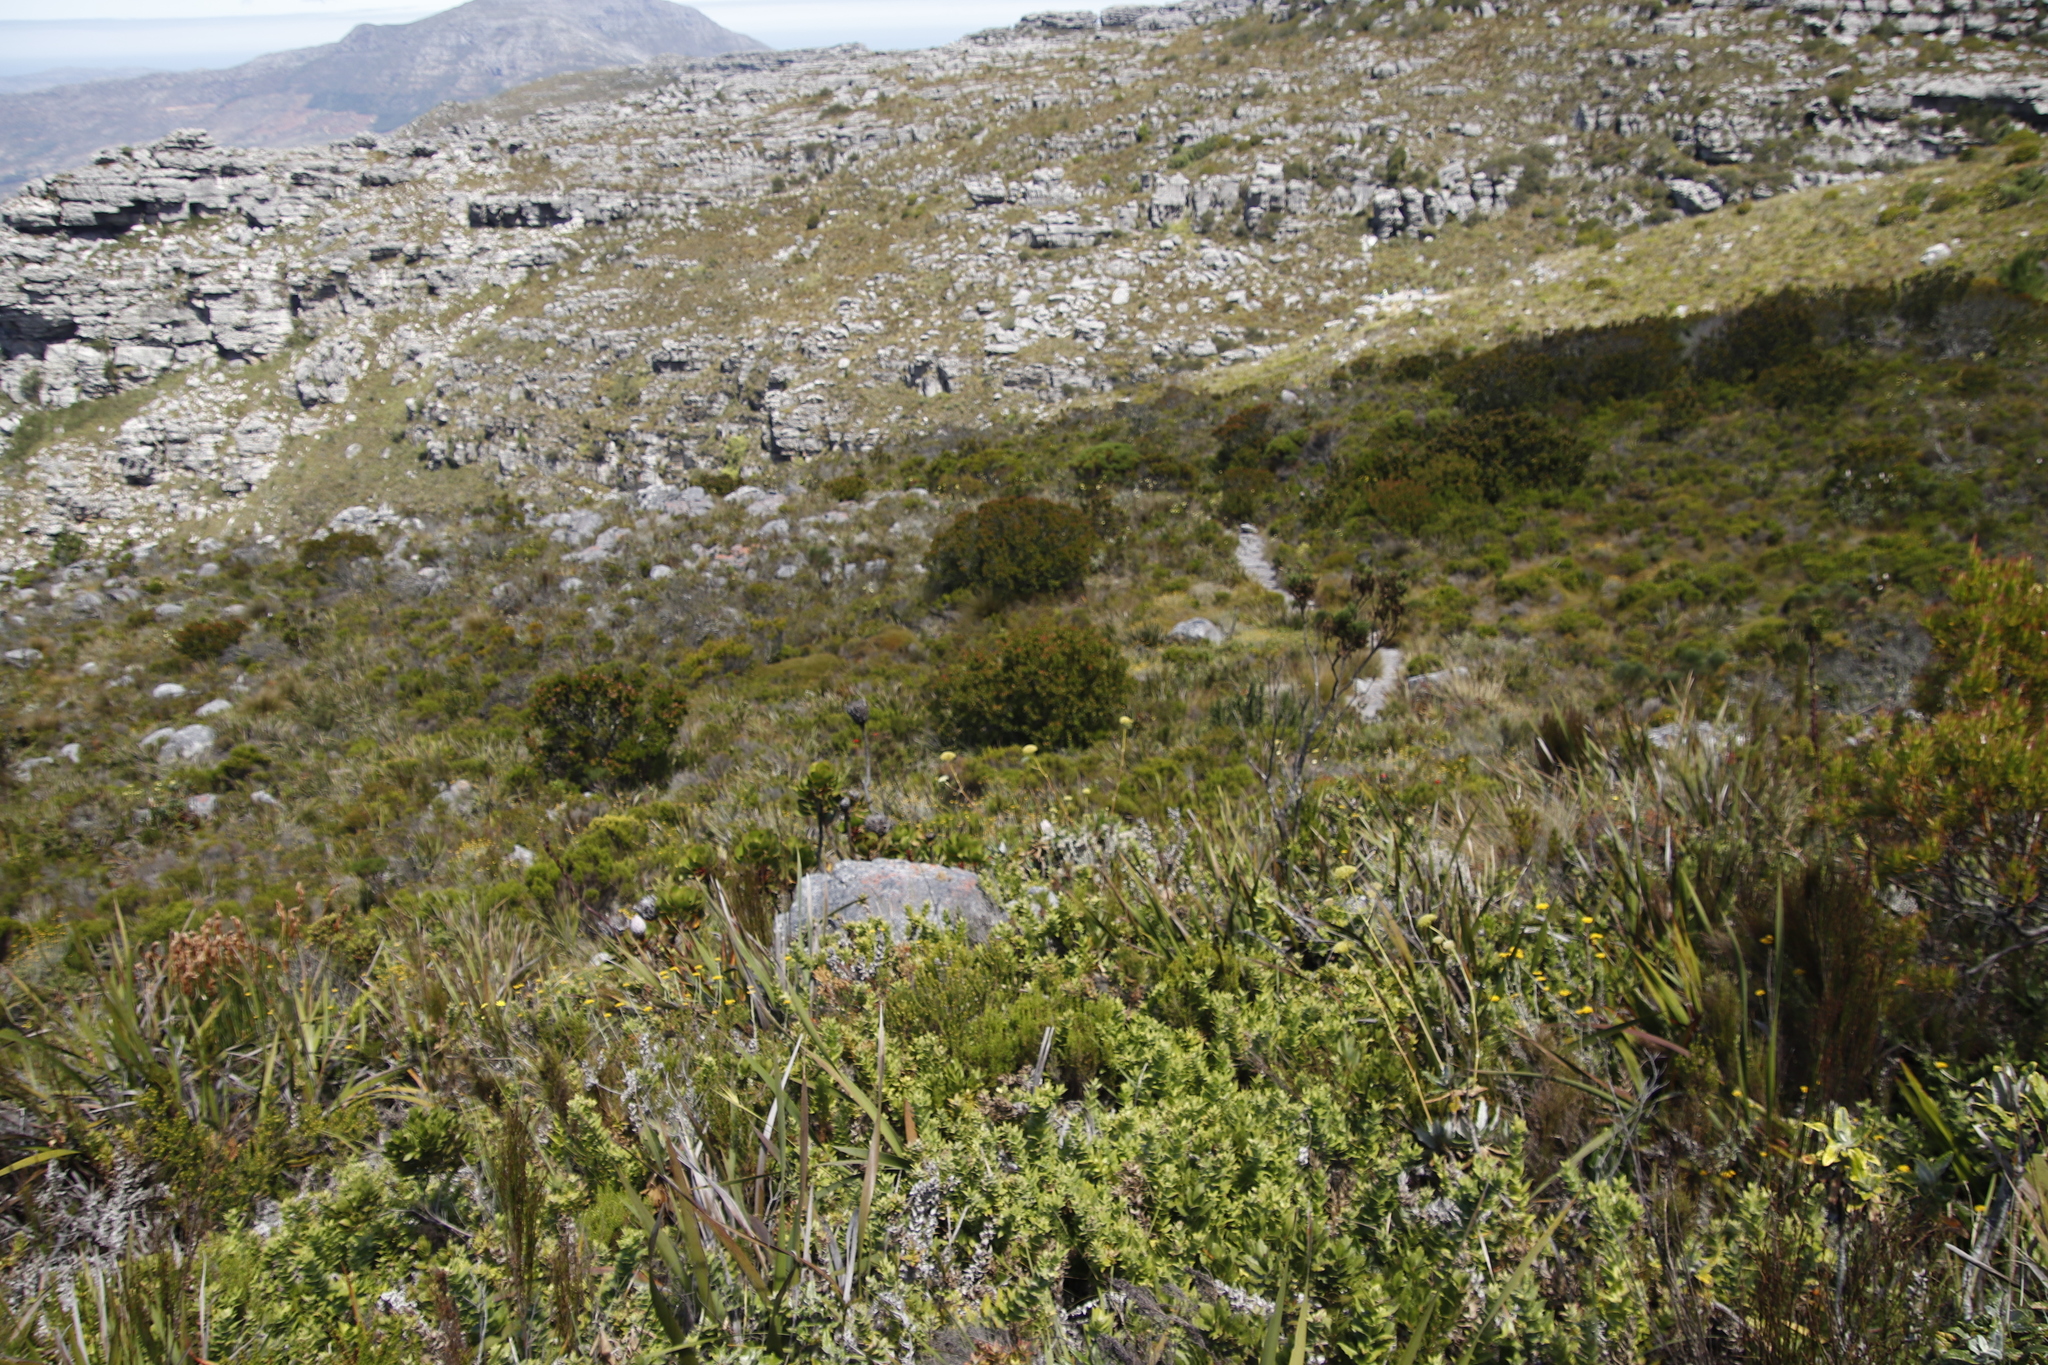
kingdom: Plantae
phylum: Tracheophyta
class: Magnoliopsida
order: Proteales
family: Proteaceae
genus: Leucadendron
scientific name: Leucadendron strobilinum
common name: Mountain rose
